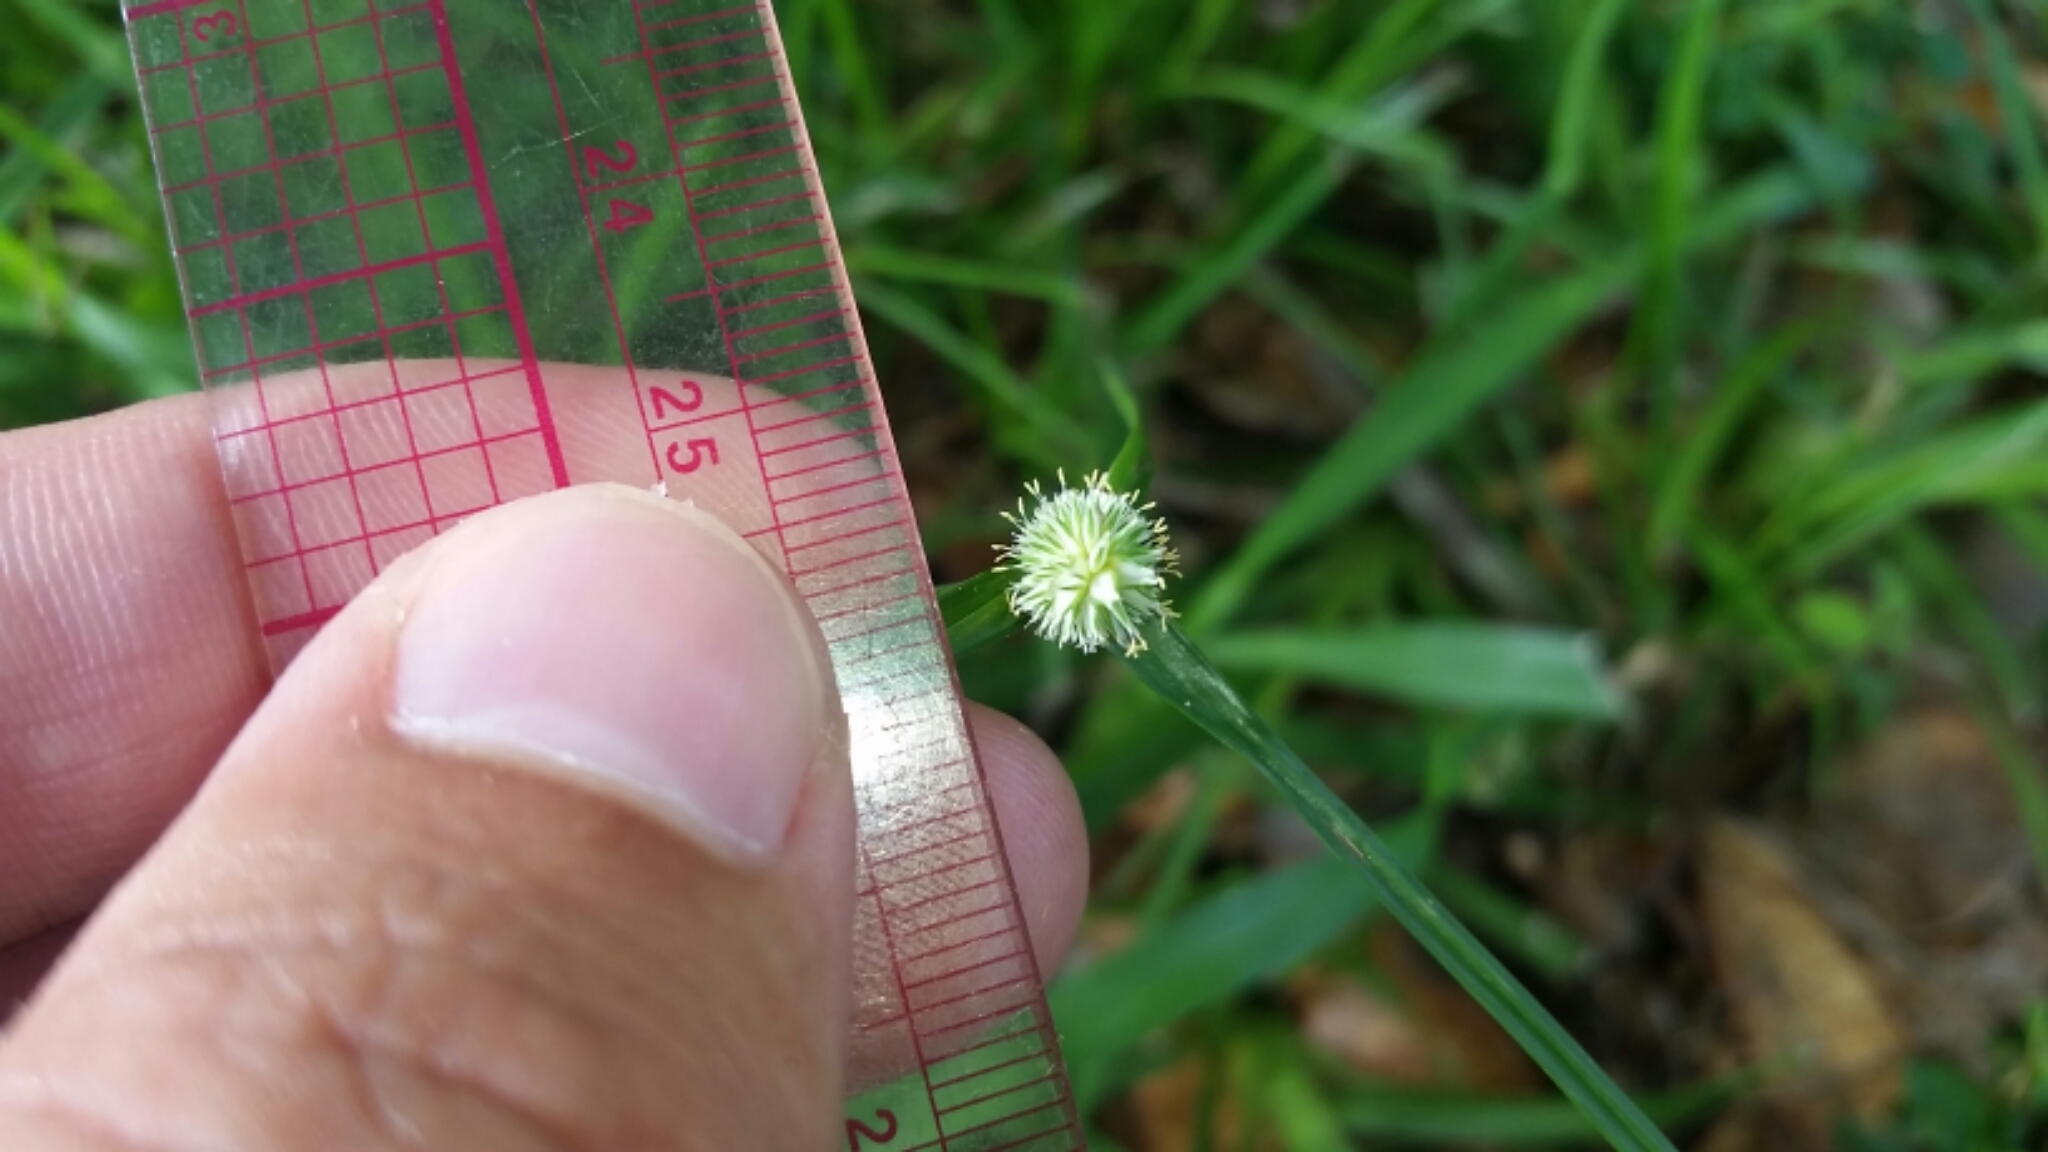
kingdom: Plantae
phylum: Tracheophyta
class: Liliopsida
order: Poales
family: Cyperaceae
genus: Cyperus
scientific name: Cyperus brevifolius
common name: Globe kyllinga
